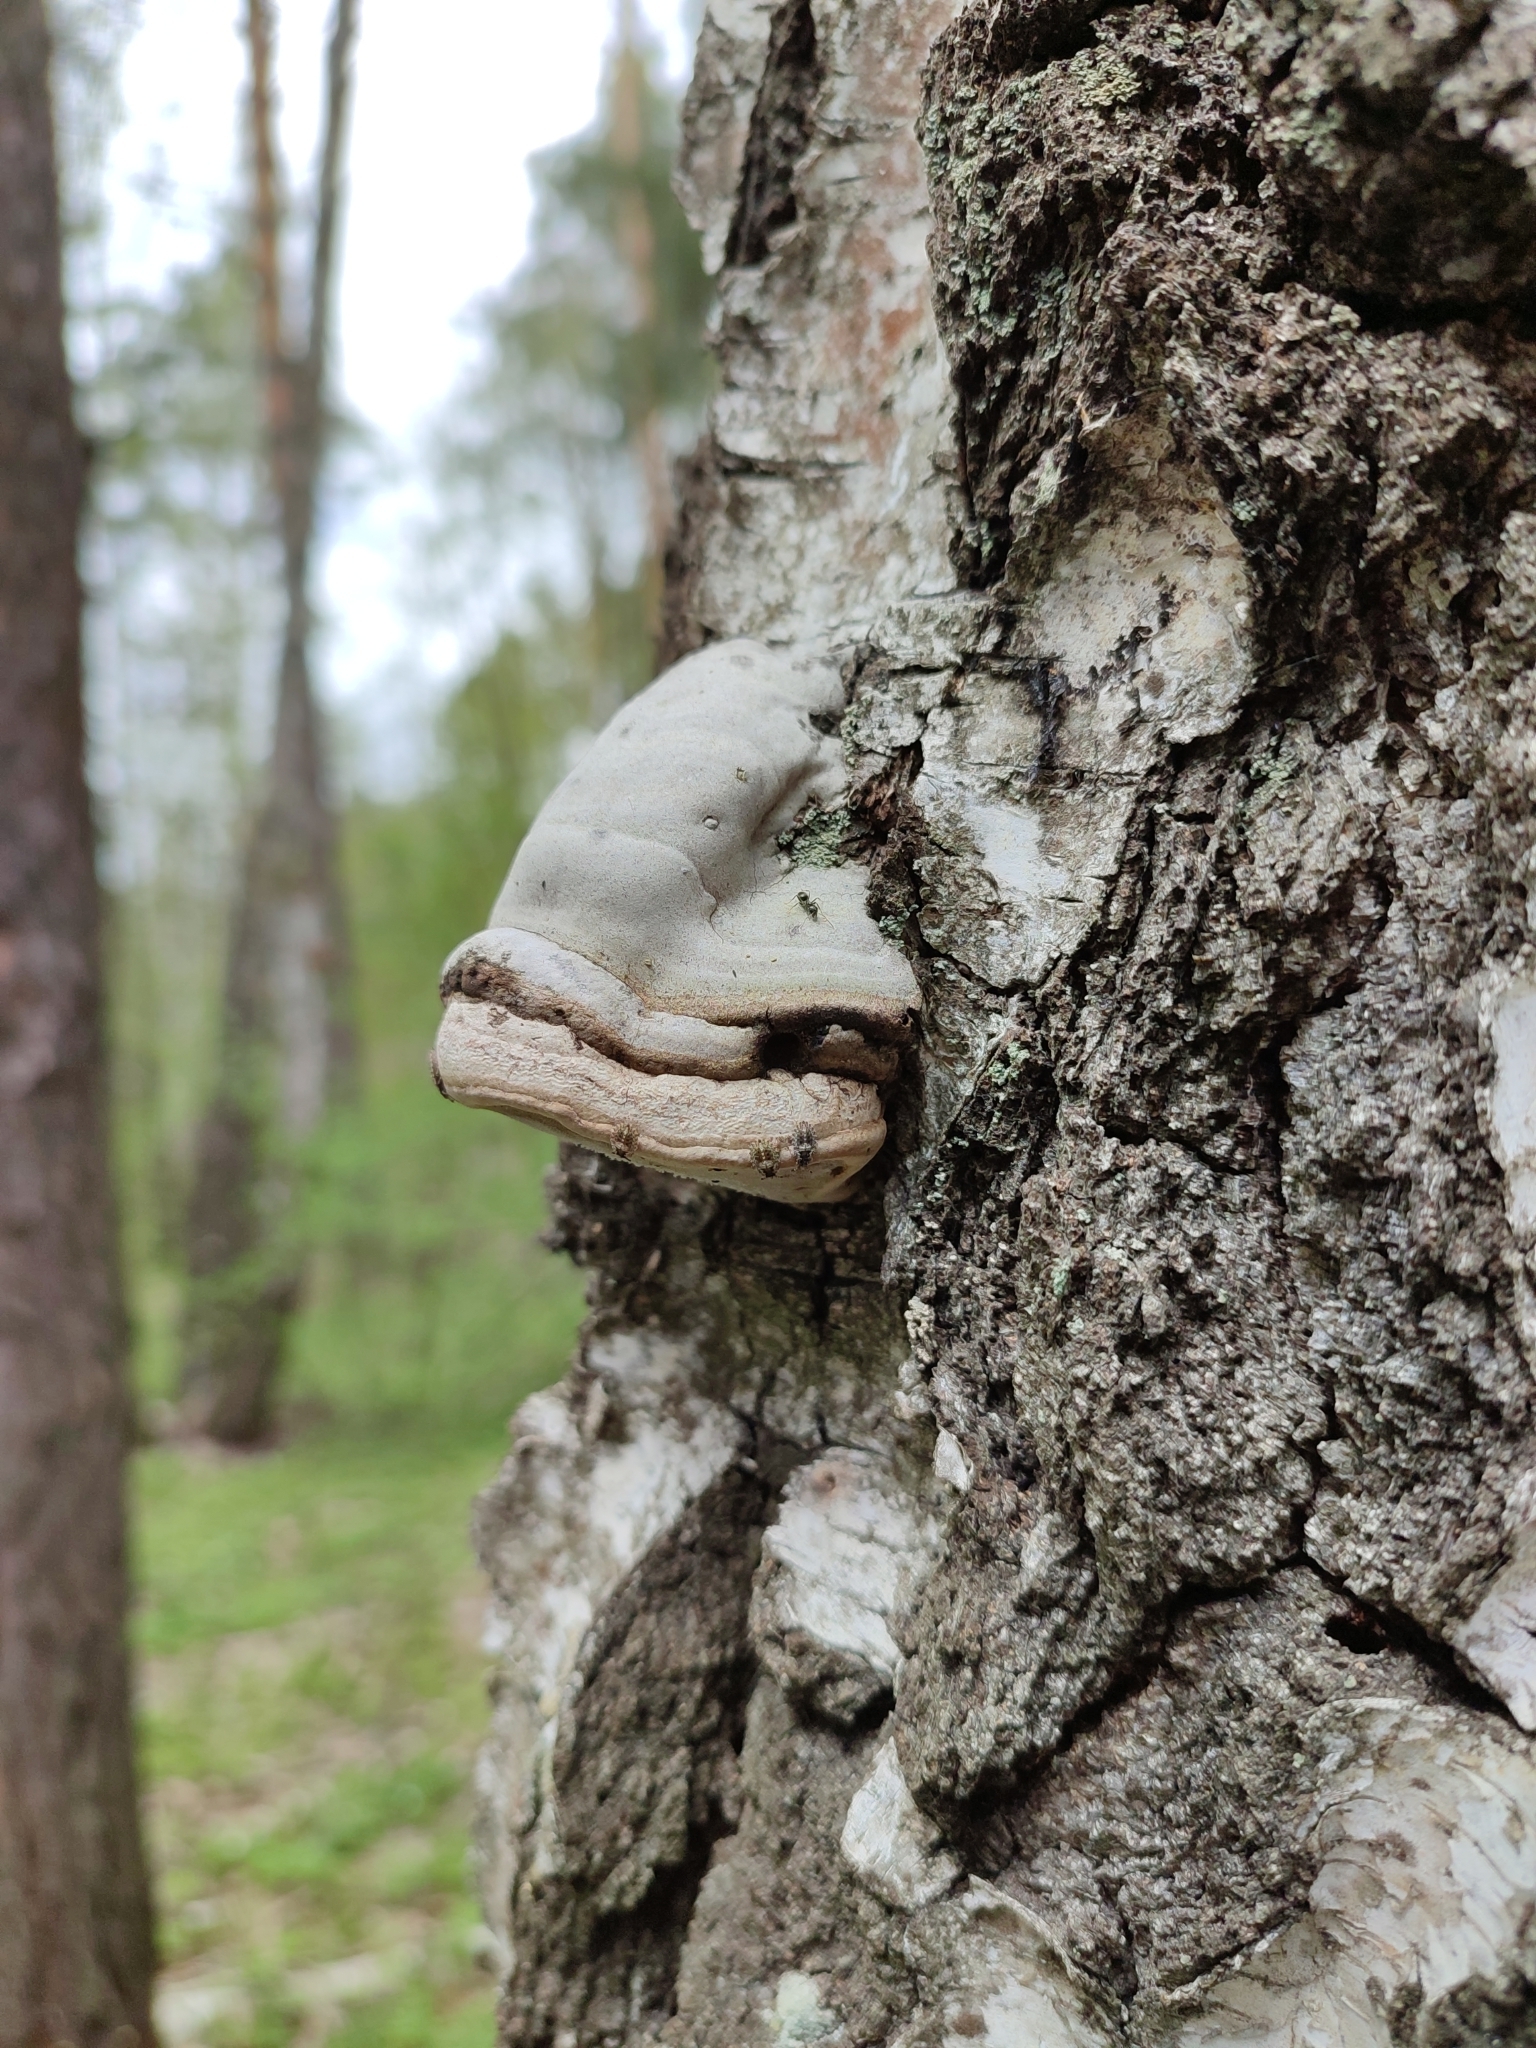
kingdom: Fungi
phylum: Basidiomycota
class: Agaricomycetes
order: Polyporales
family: Polyporaceae
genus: Fomes
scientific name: Fomes fomentarius
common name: Hoof fungus
